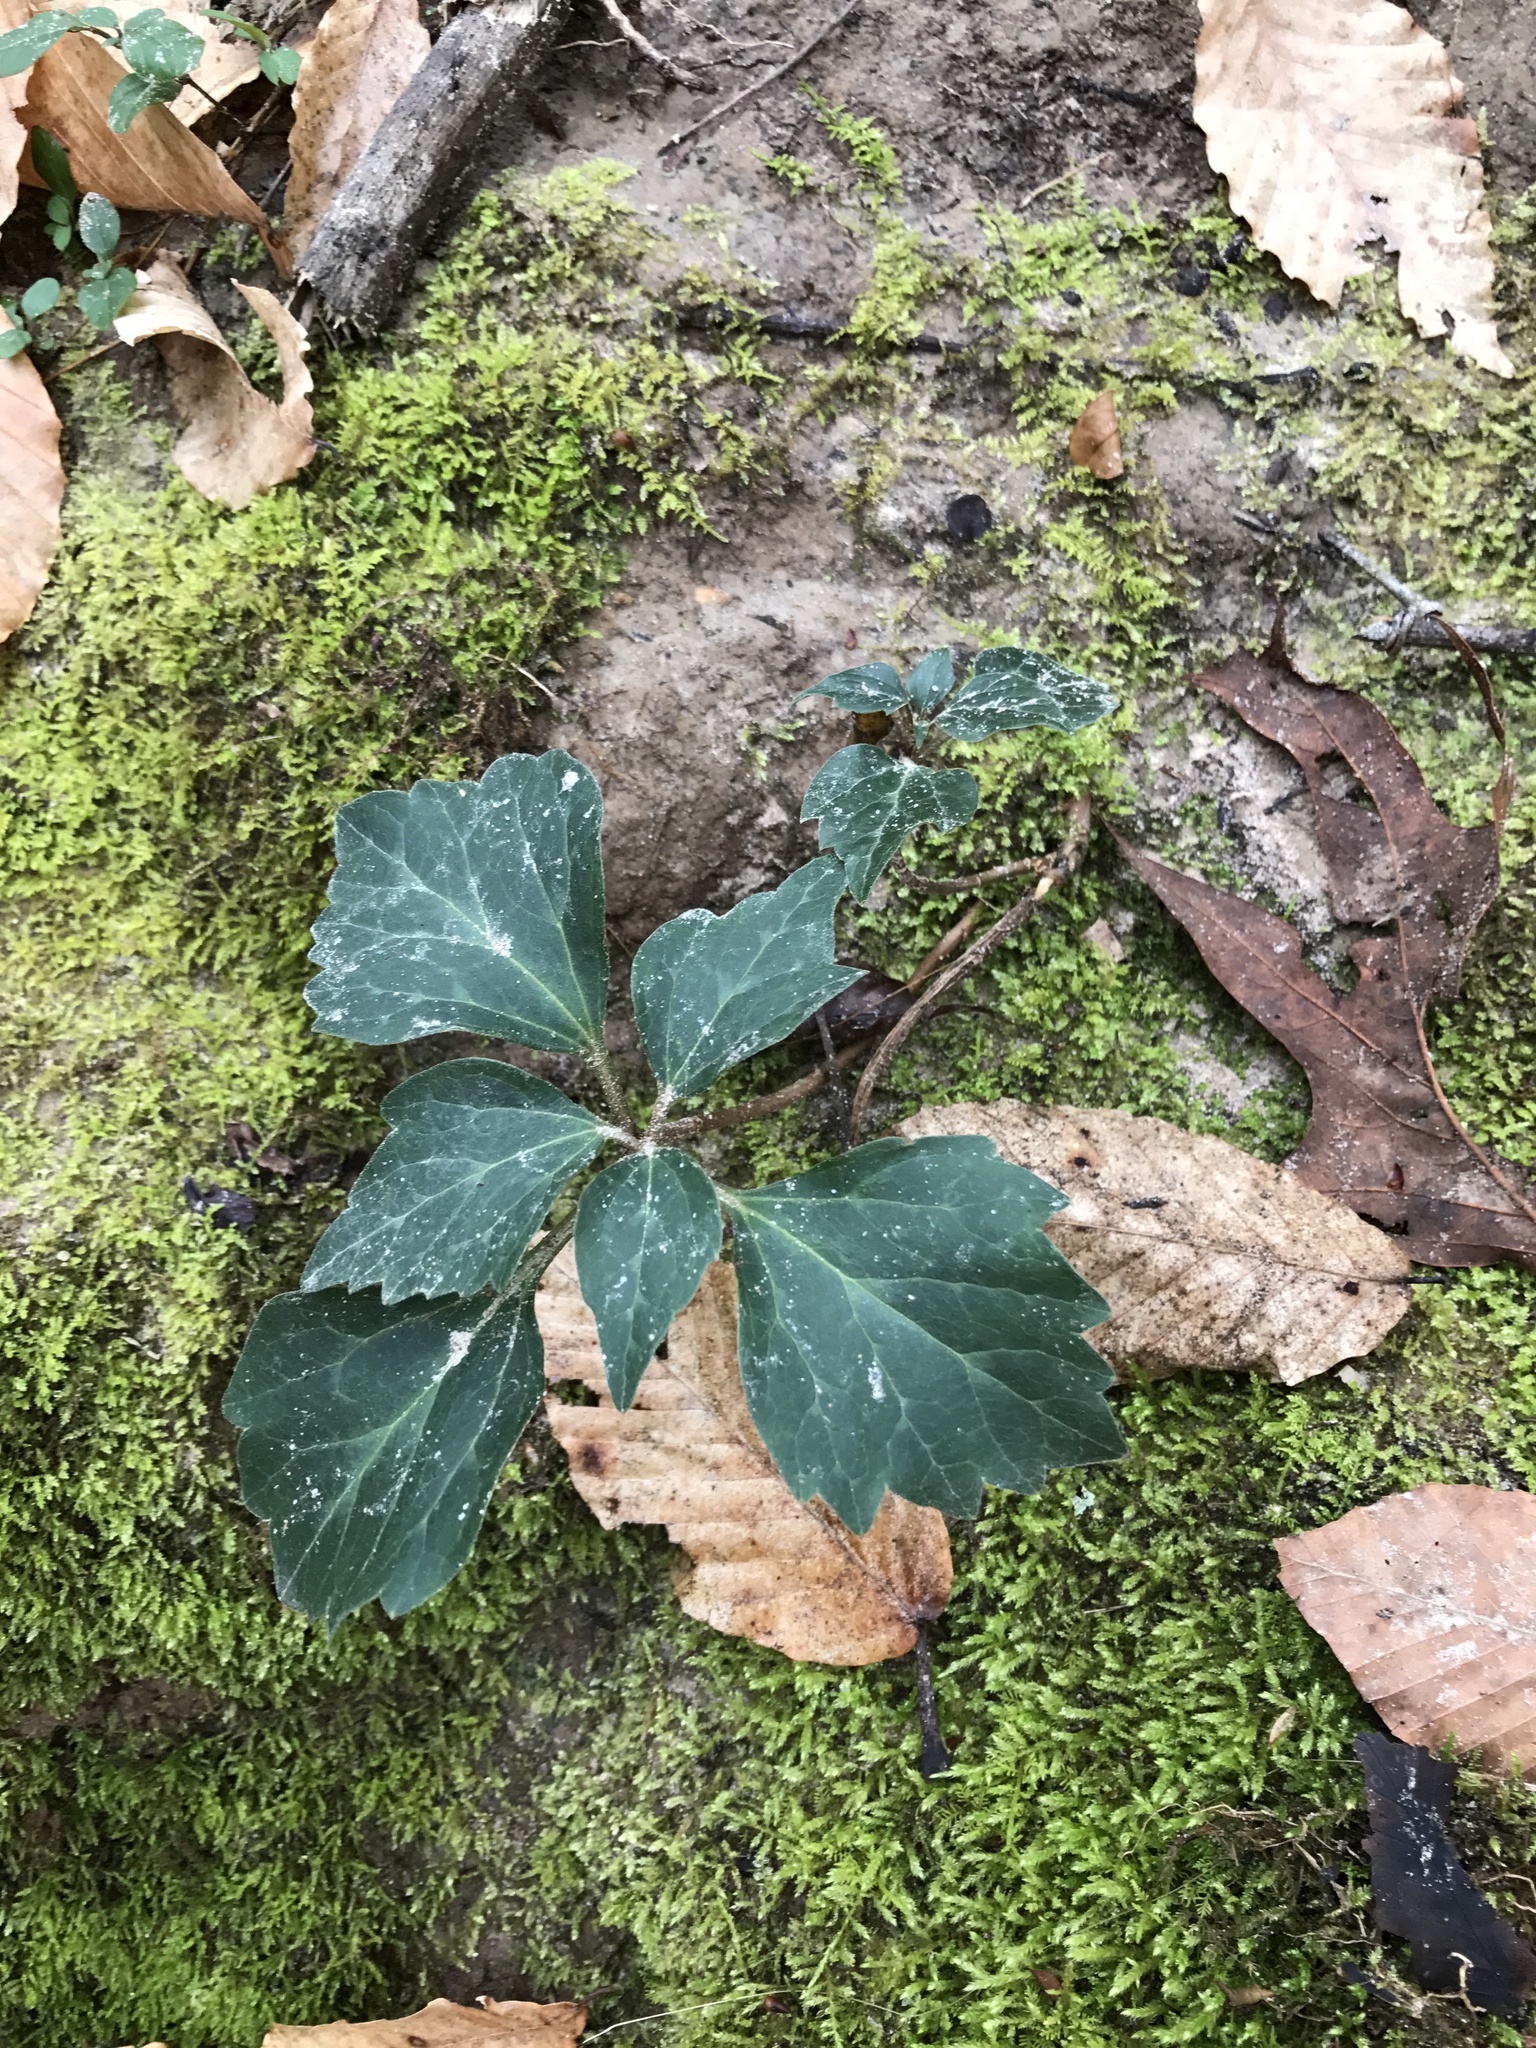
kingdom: Plantae
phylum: Tracheophyta
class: Magnoliopsida
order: Buxales
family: Buxaceae
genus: Pachysandra
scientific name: Pachysandra procumbens
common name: Mountain-spurge
